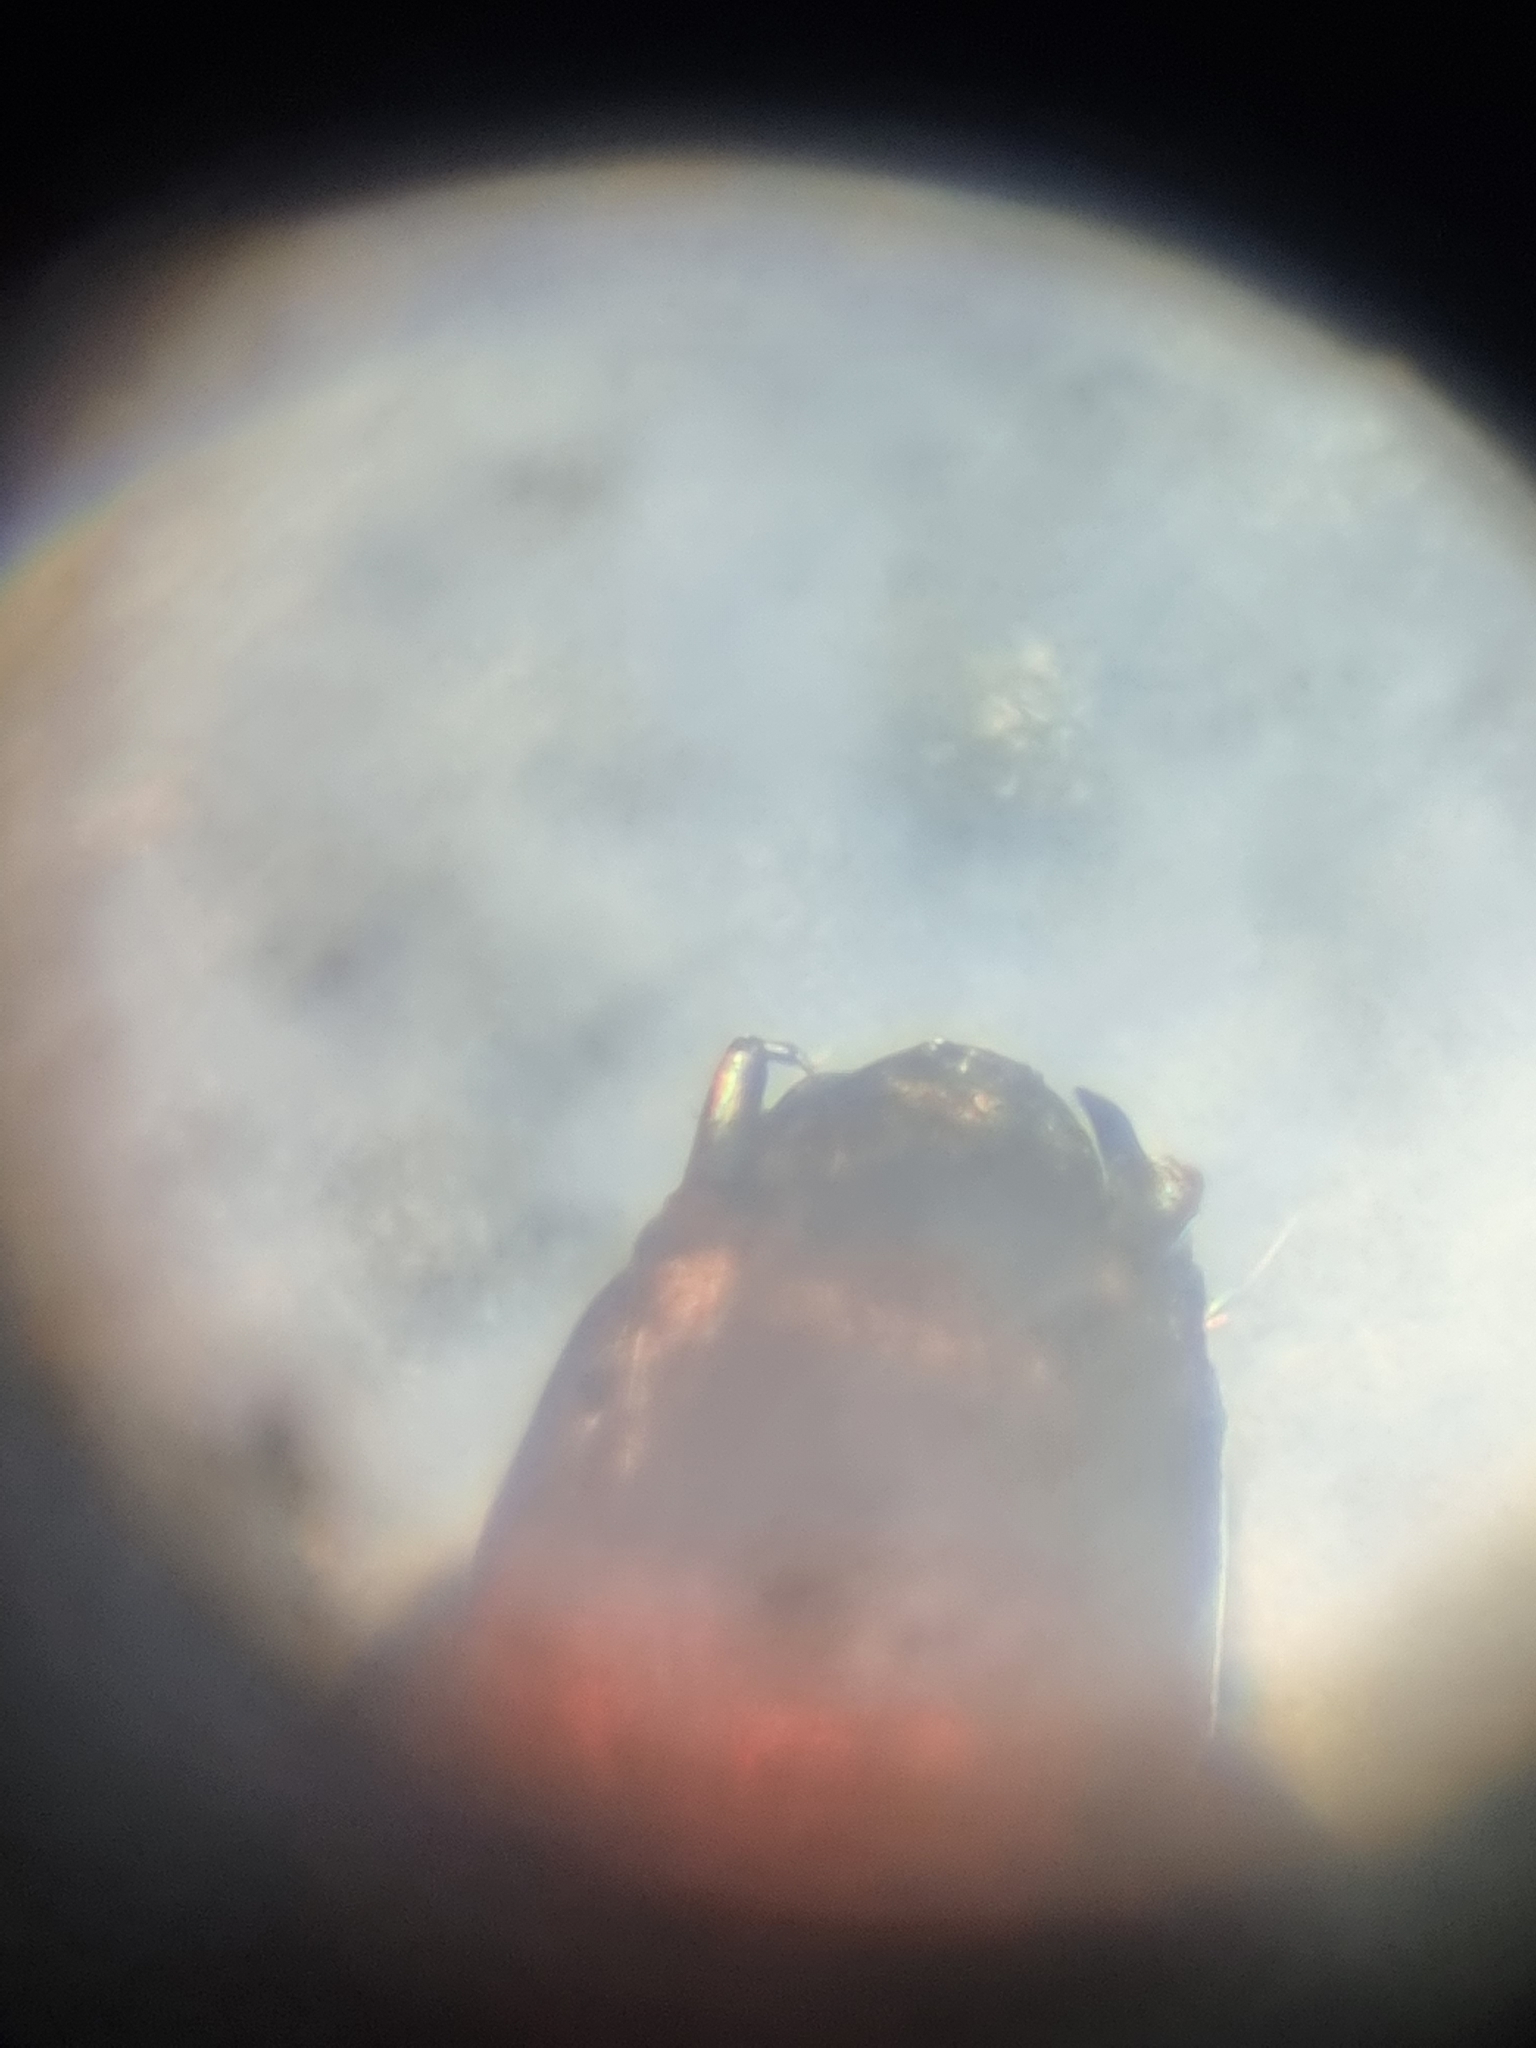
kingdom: Animalia
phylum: Arthropoda
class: Insecta
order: Diptera
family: Culicidae
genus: Toxorhynchites
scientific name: Toxorhynchites speciosus
